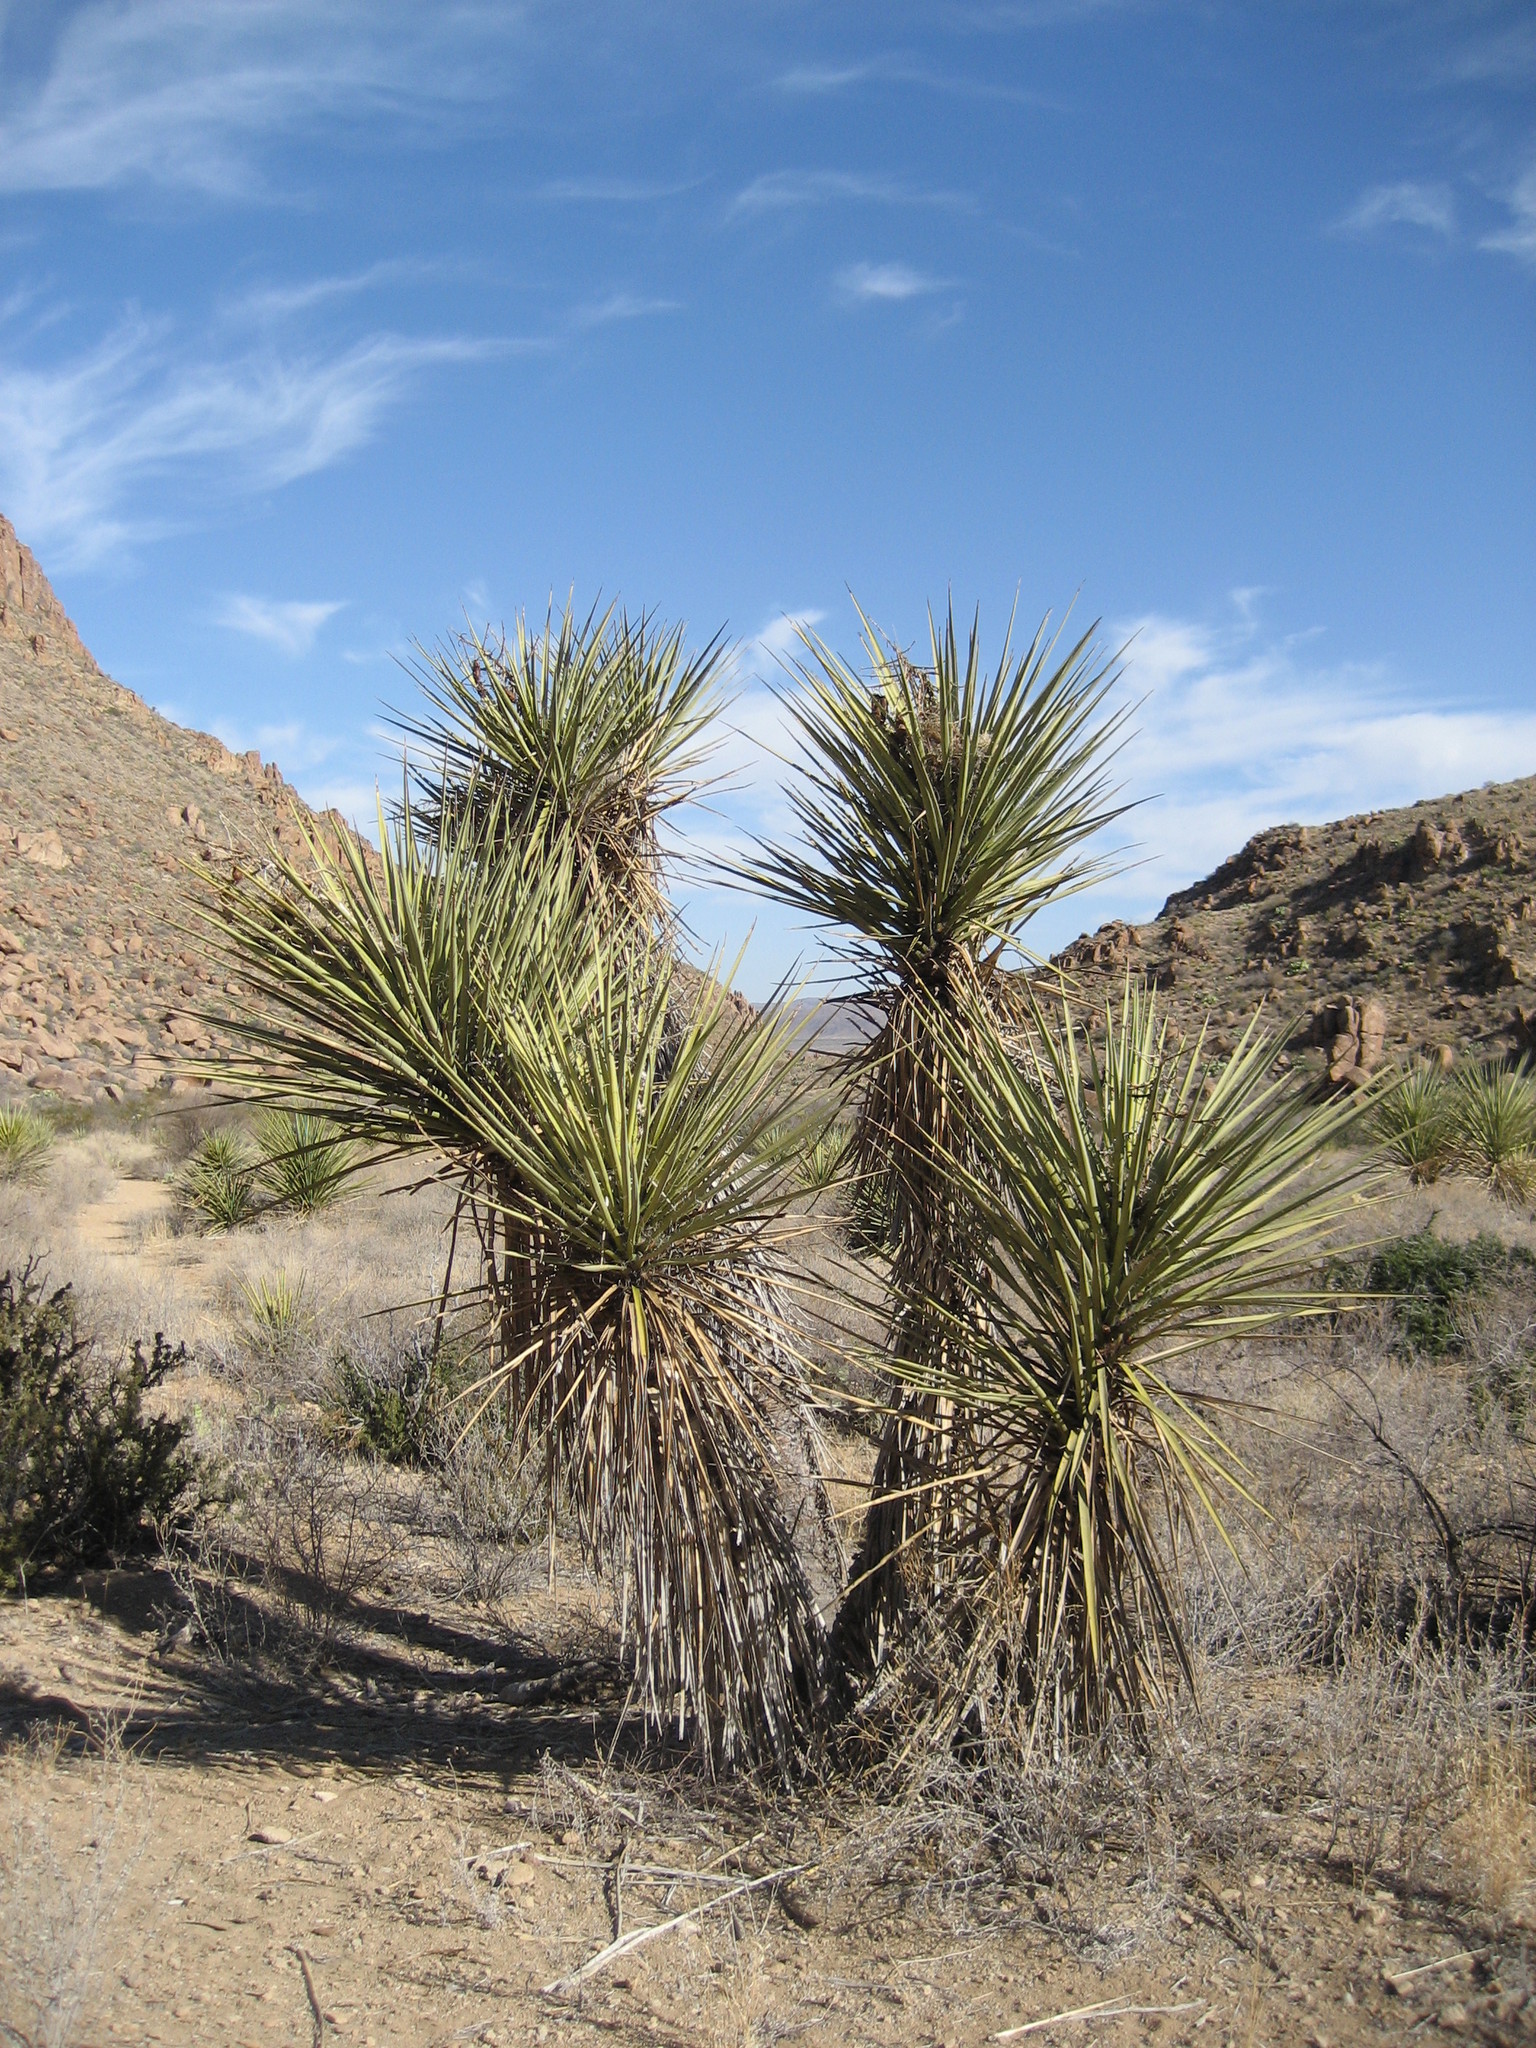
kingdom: Plantae
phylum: Tracheophyta
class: Liliopsida
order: Asparagales
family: Asparagaceae
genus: Yucca
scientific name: Yucca treculiana
